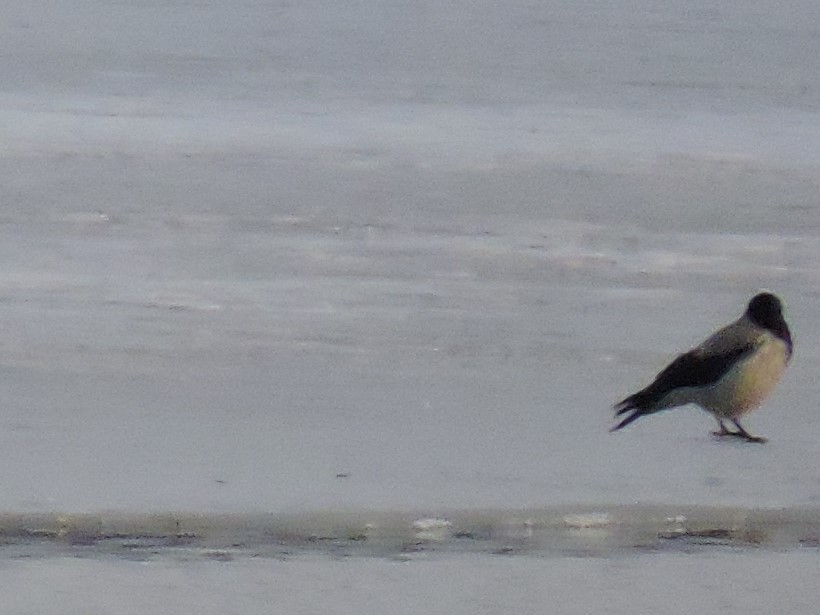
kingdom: Animalia
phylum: Chordata
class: Aves
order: Passeriformes
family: Corvidae
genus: Corvus
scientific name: Corvus cornix
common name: Hooded crow
